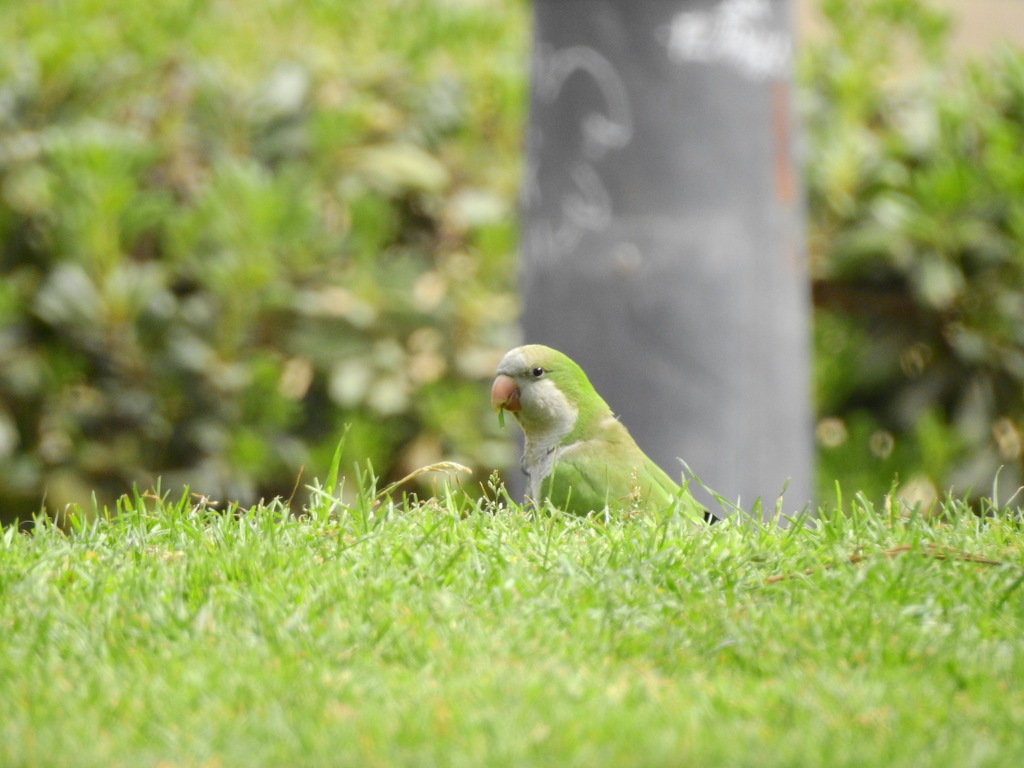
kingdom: Animalia
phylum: Chordata
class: Aves
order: Psittaciformes
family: Psittacidae
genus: Myiopsitta
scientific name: Myiopsitta monachus
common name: Monk parakeet
